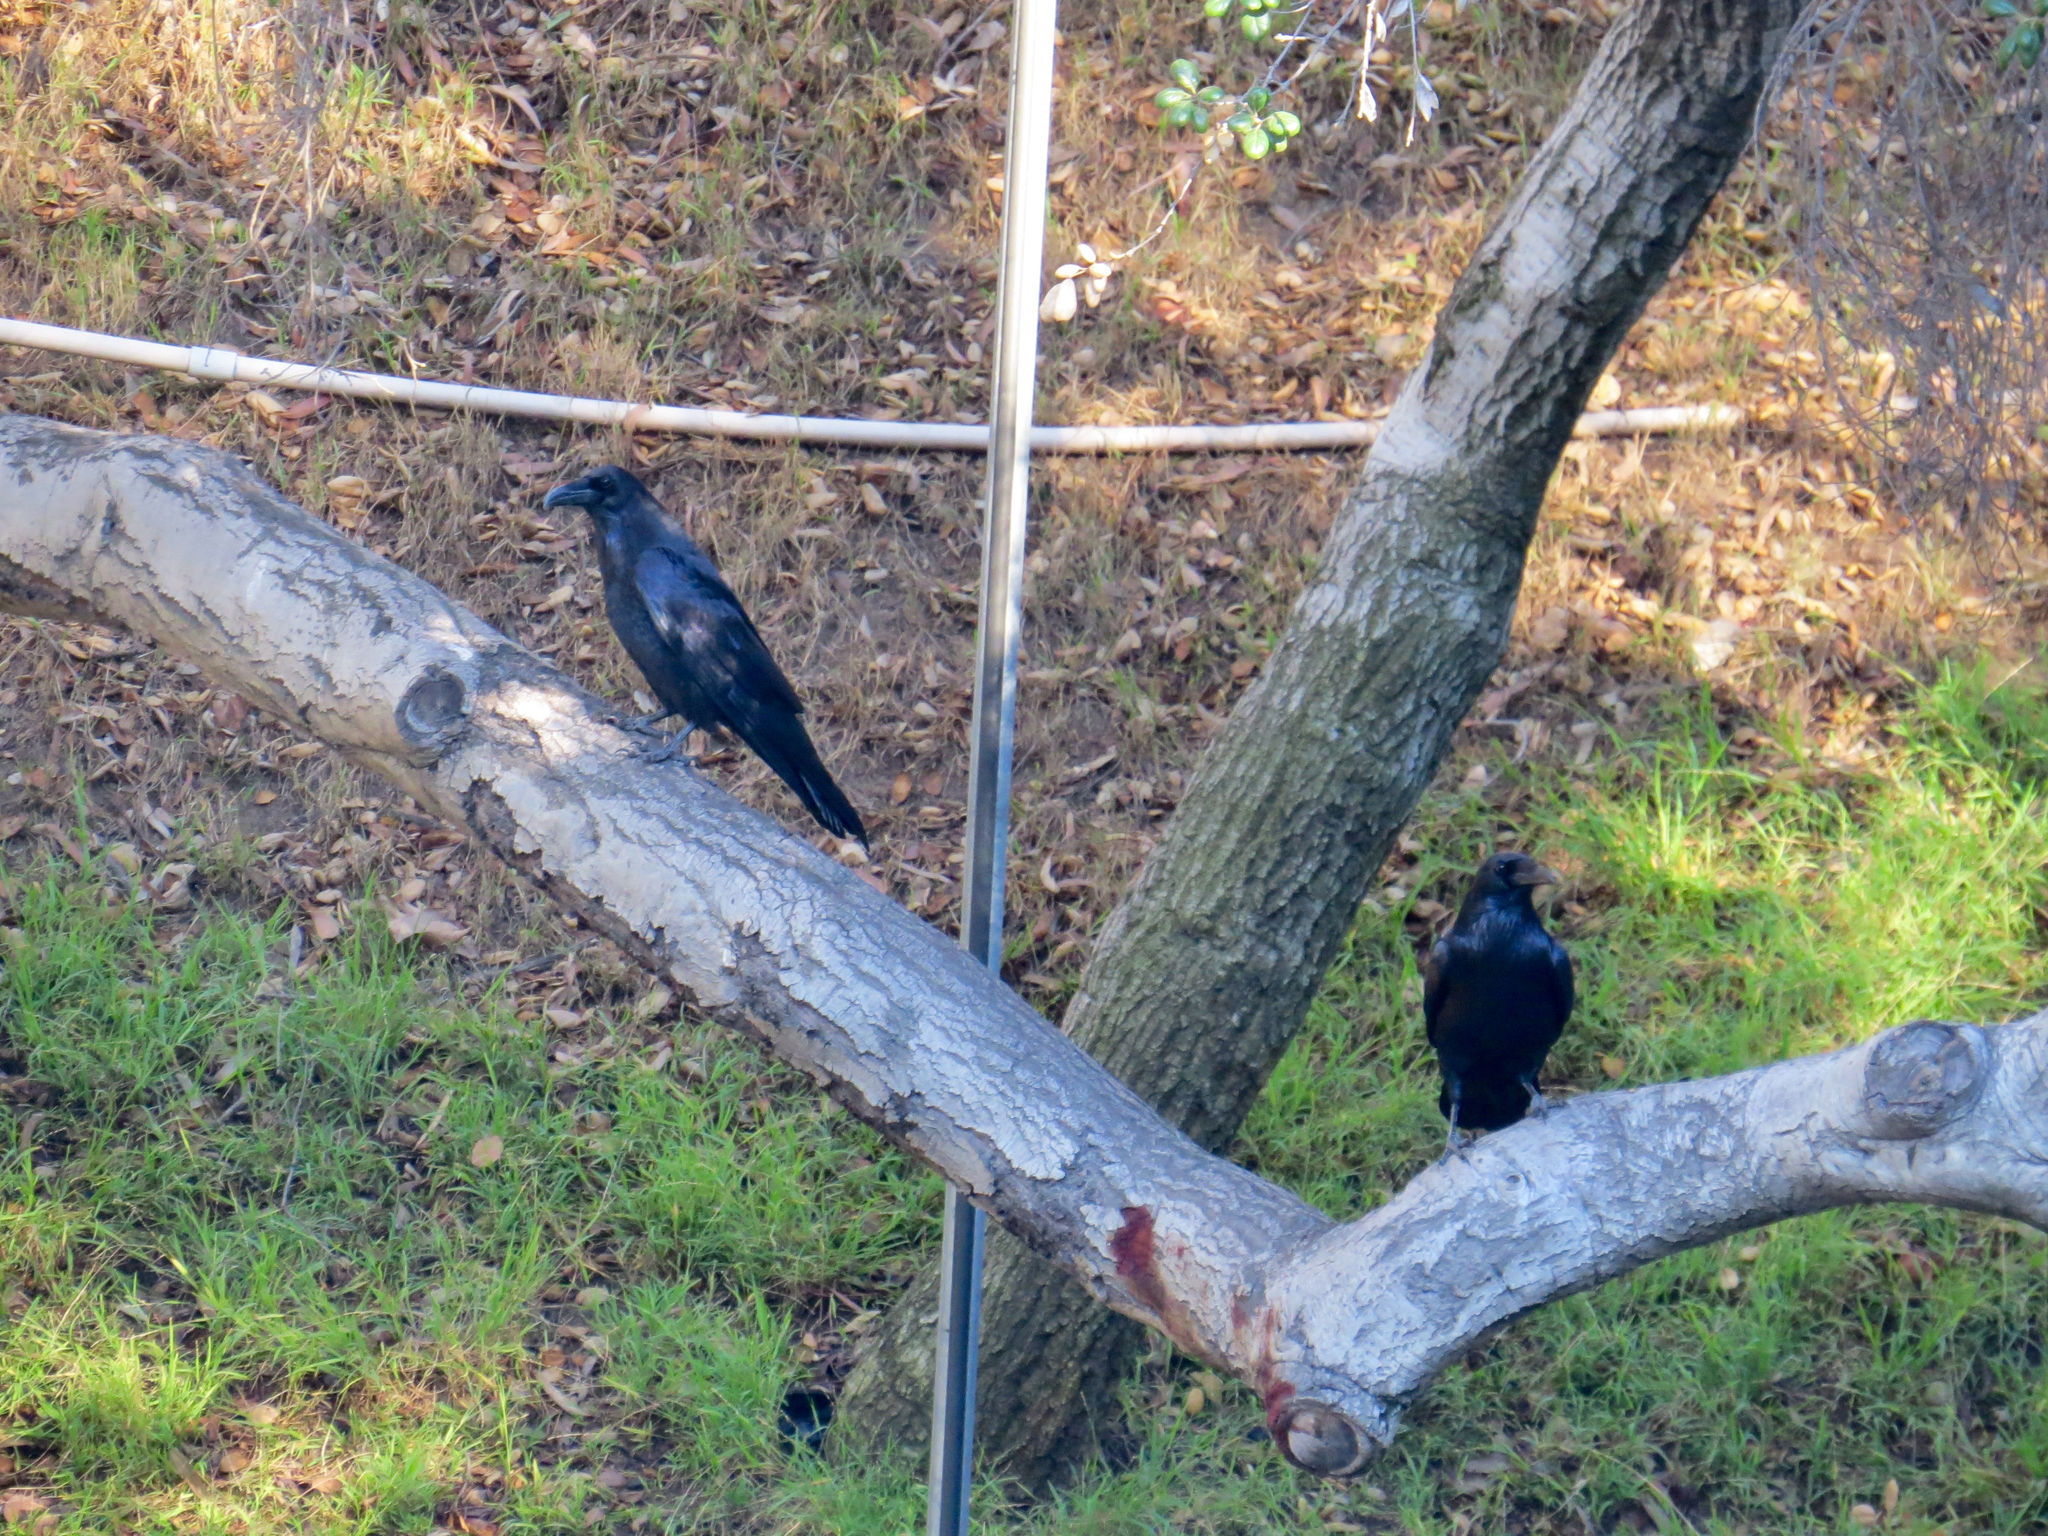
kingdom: Animalia
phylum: Chordata
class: Aves
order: Passeriformes
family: Corvidae
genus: Corvus
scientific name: Corvus corax
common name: Common raven
